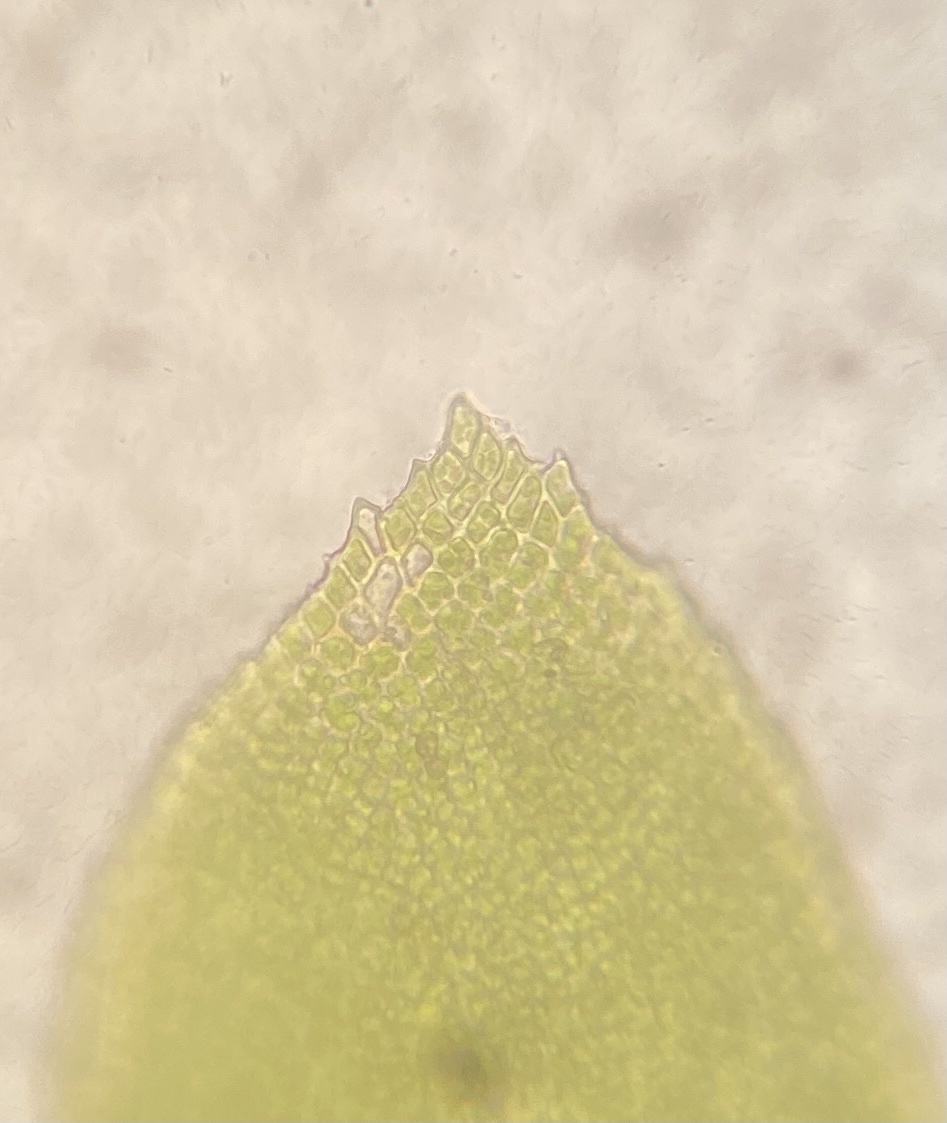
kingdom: Plantae
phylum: Bryophyta
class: Bryopsida
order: Hypnales
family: Neckeraceae
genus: Pseudanomodon
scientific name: Pseudanomodon attenuatus
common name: Tree-skirt moss
